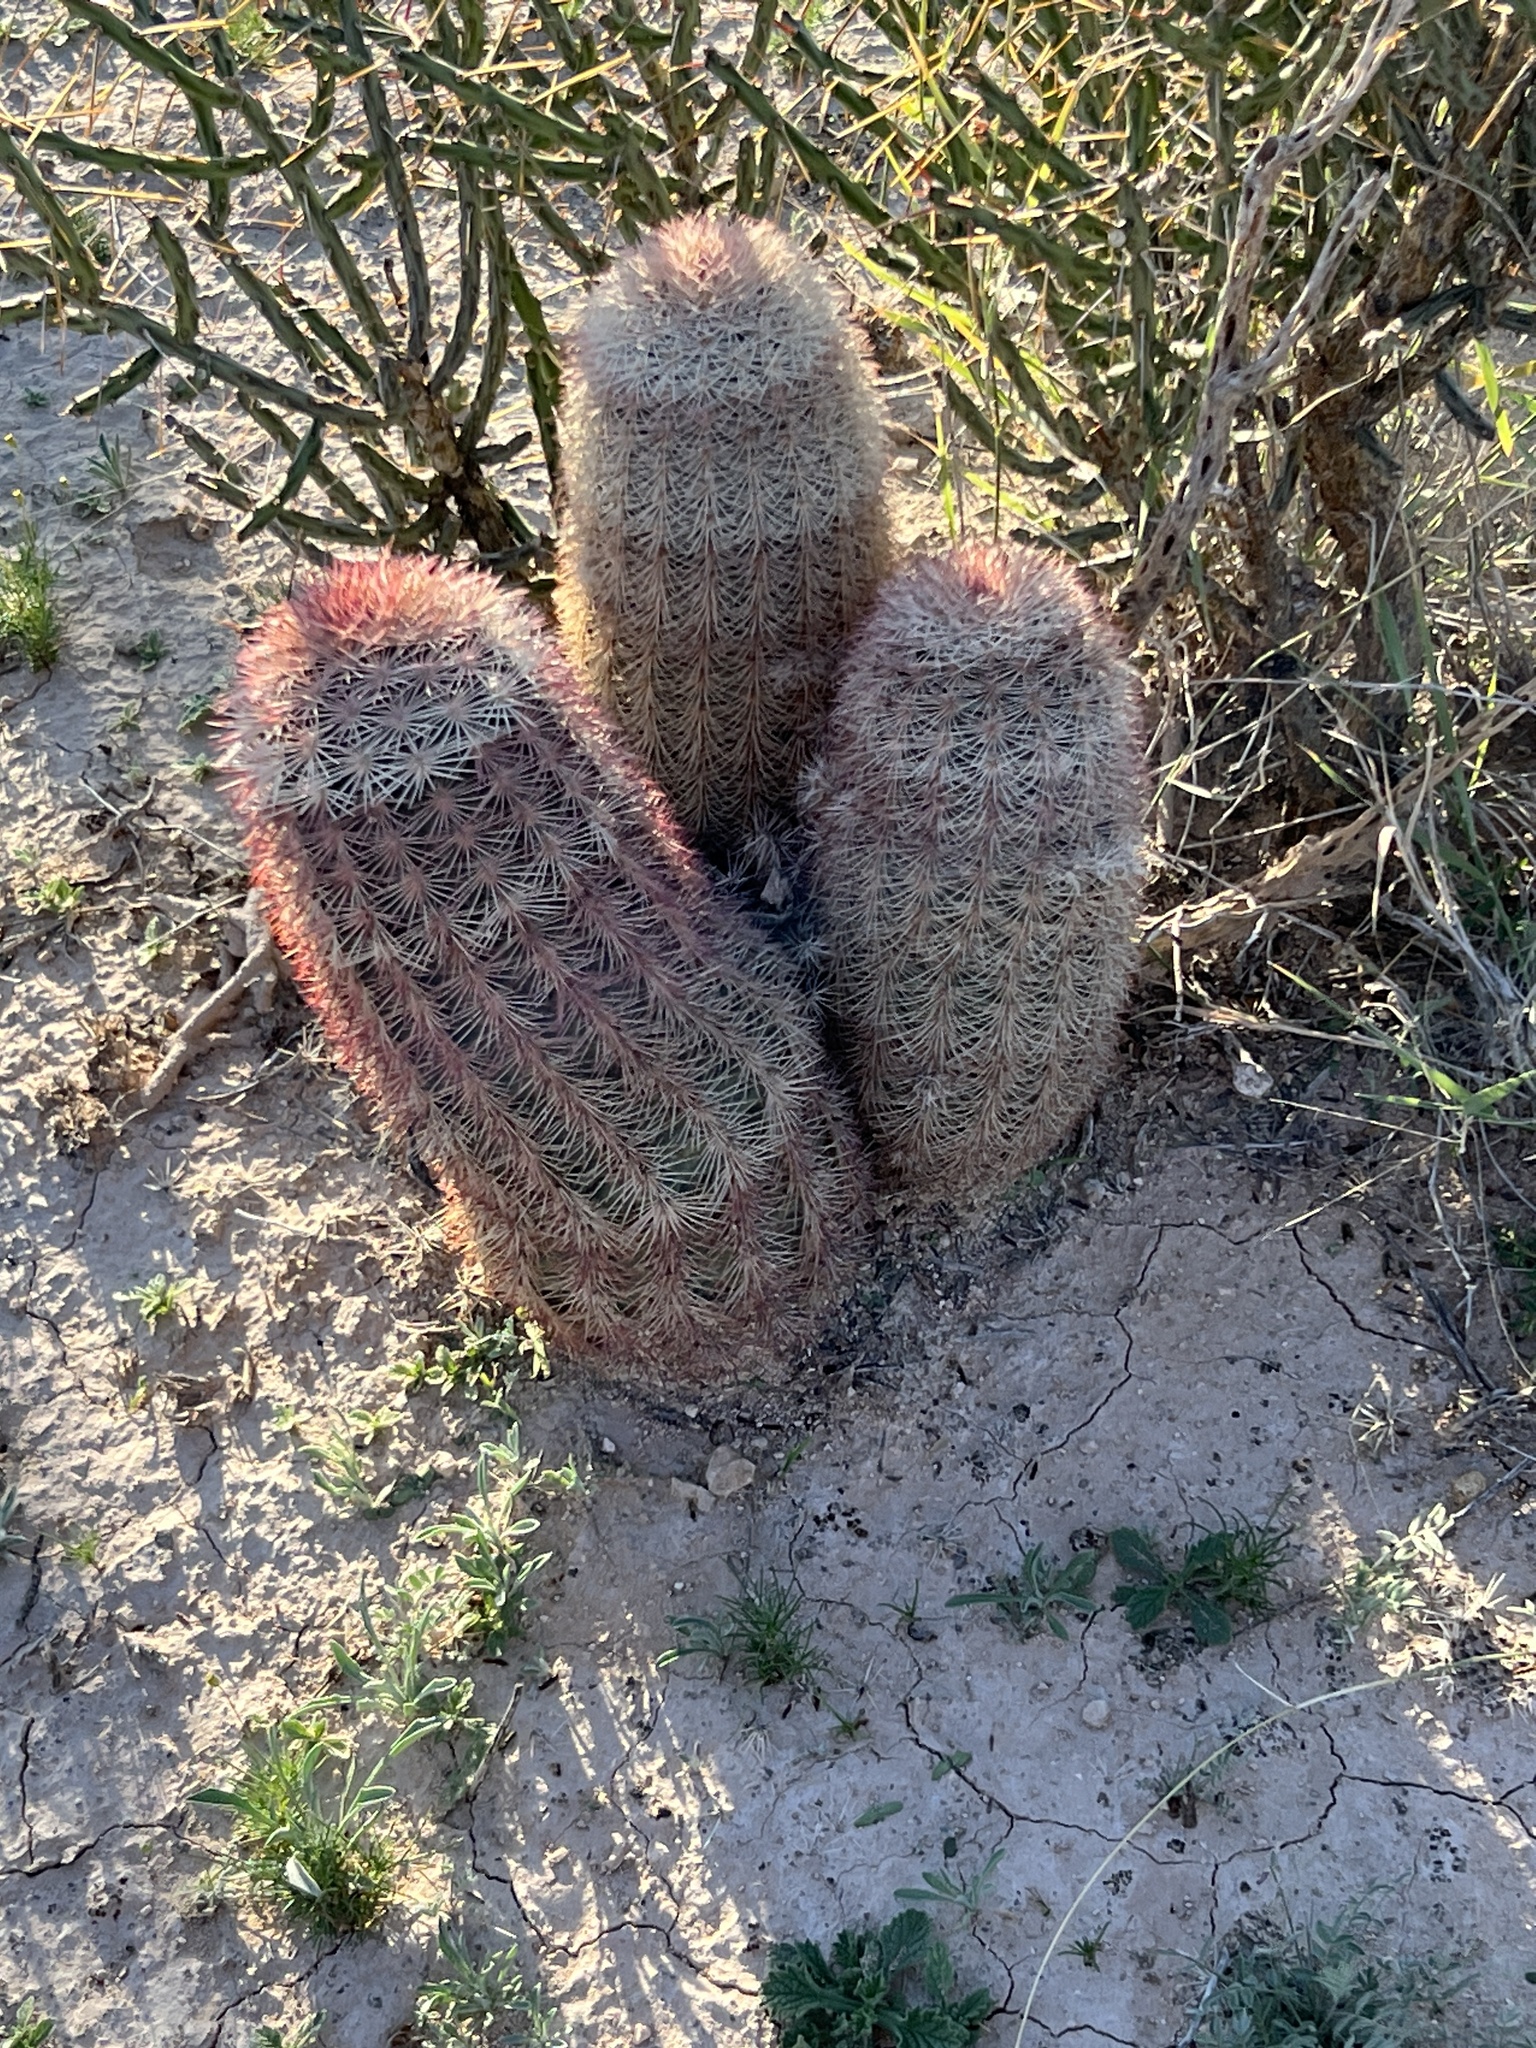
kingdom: Plantae
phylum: Tracheophyta
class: Magnoliopsida
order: Caryophyllales
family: Cactaceae
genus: Echinocereus
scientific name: Echinocereus dasyacanthus
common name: Spiny hedgehog cactus
